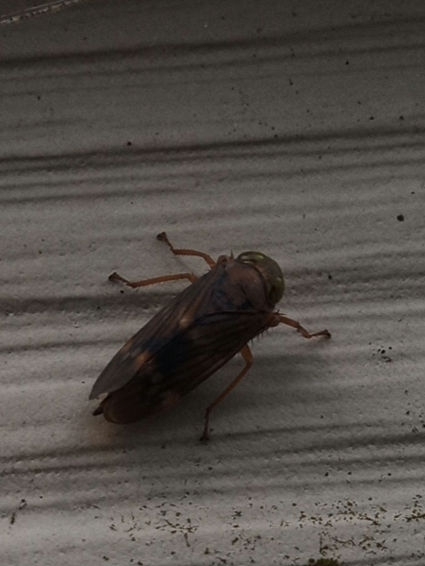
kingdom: Animalia
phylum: Arthropoda
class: Insecta
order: Hemiptera
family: Cicadellidae
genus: Jikradia
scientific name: Jikradia olitoria
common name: Coppery leafhopper
